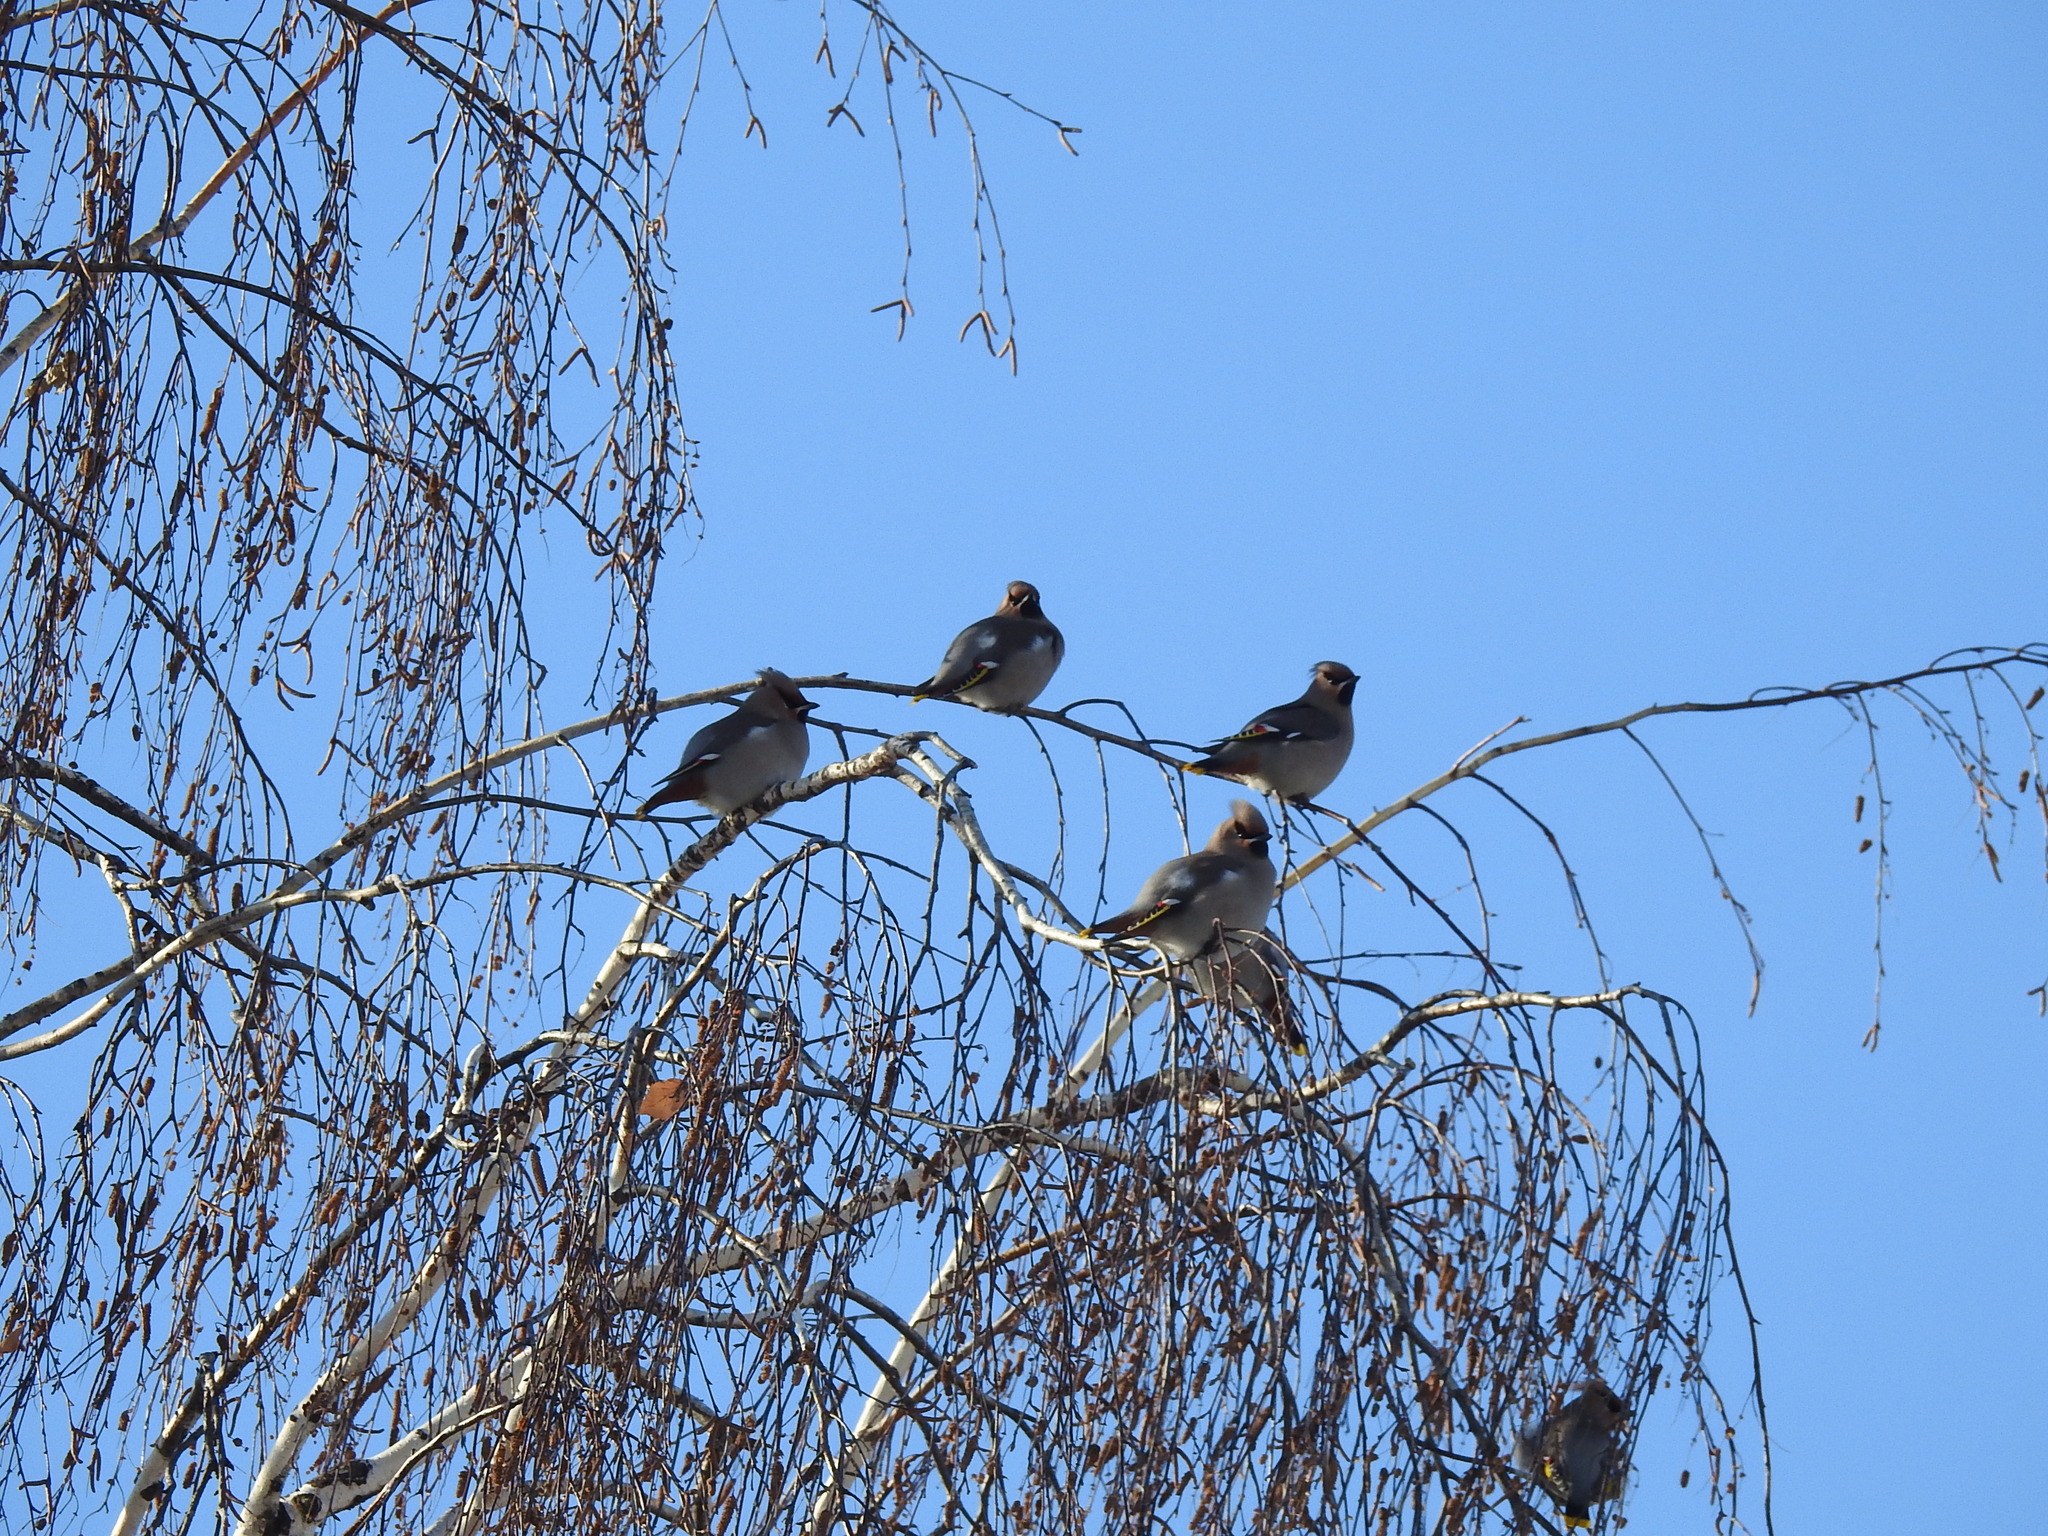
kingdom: Animalia
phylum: Chordata
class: Aves
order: Passeriformes
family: Bombycillidae
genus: Bombycilla
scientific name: Bombycilla garrulus
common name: Bohemian waxwing
